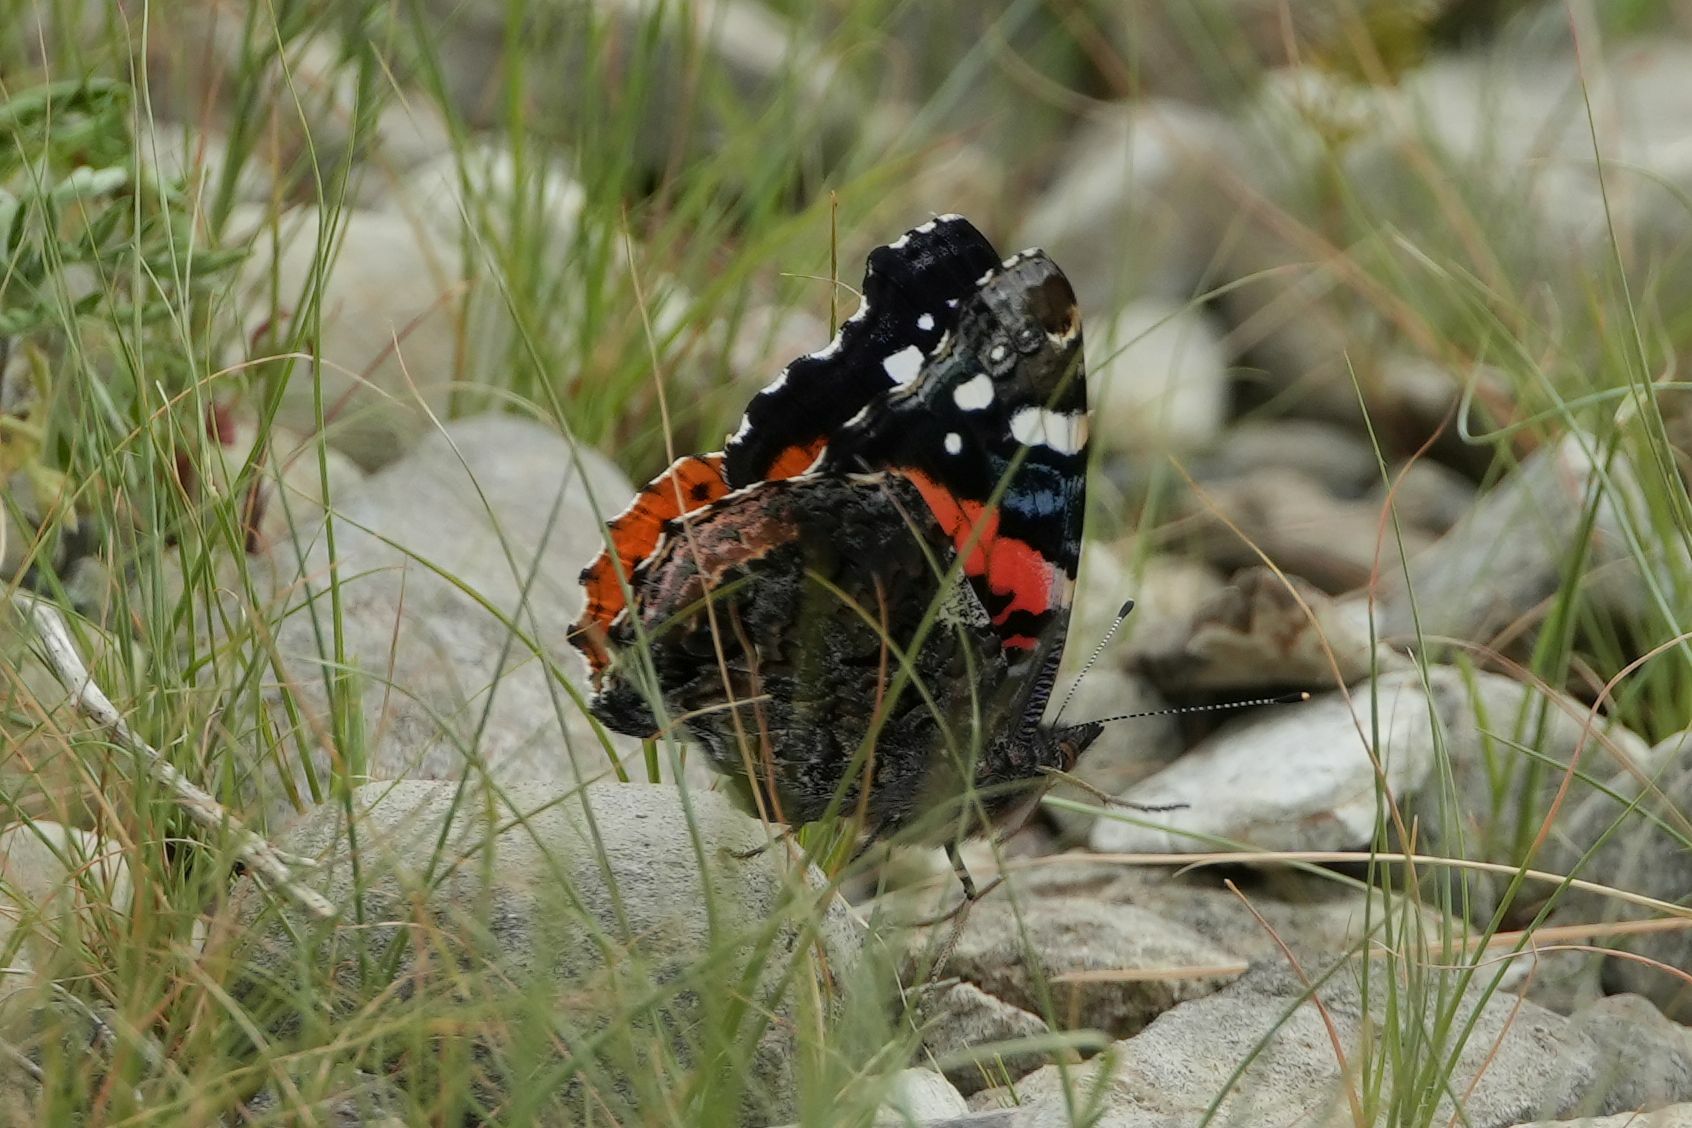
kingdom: Animalia
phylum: Arthropoda
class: Insecta
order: Lepidoptera
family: Nymphalidae
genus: Vanessa
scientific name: Vanessa atalanta
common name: Red admiral
